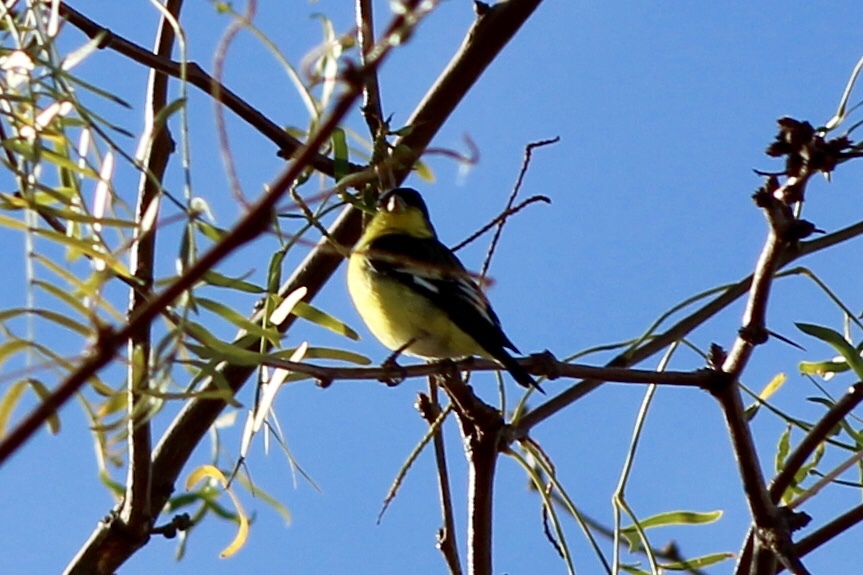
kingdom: Animalia
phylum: Chordata
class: Aves
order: Passeriformes
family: Fringillidae
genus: Spinus
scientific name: Spinus psaltria
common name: Lesser goldfinch
